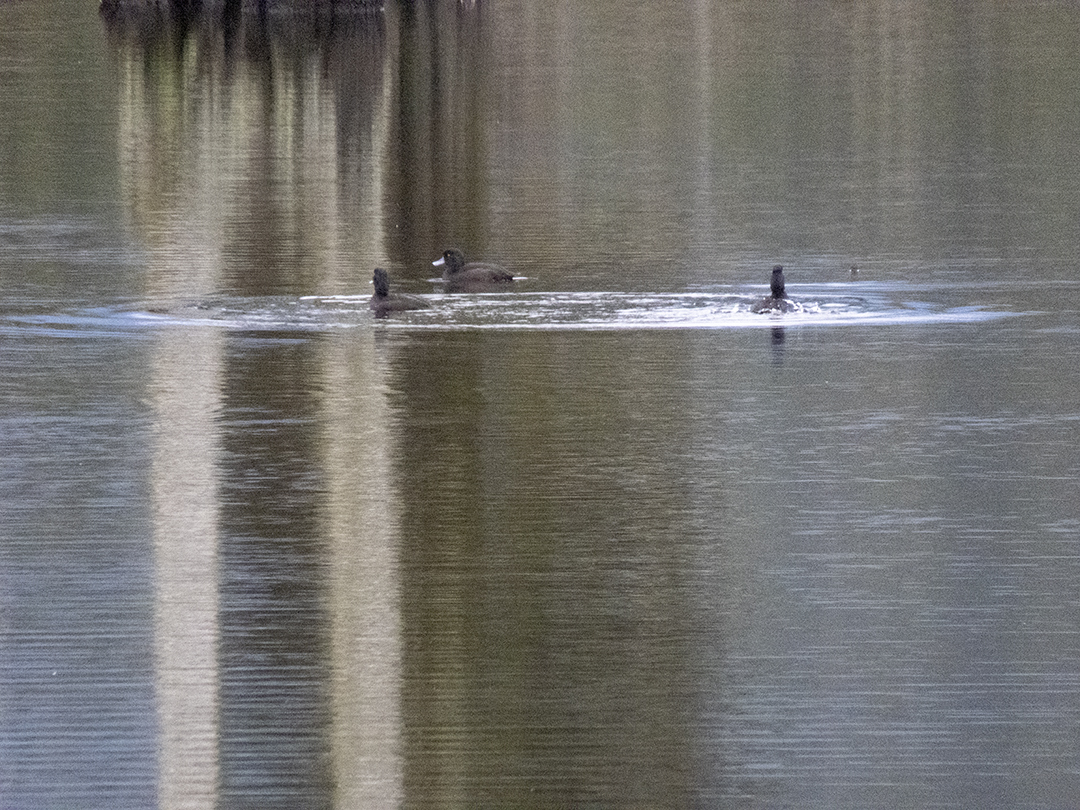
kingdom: Animalia
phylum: Chordata
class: Aves
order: Anseriformes
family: Anatidae
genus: Aythya
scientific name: Aythya novaeseelandiae
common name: New zealand scaup
